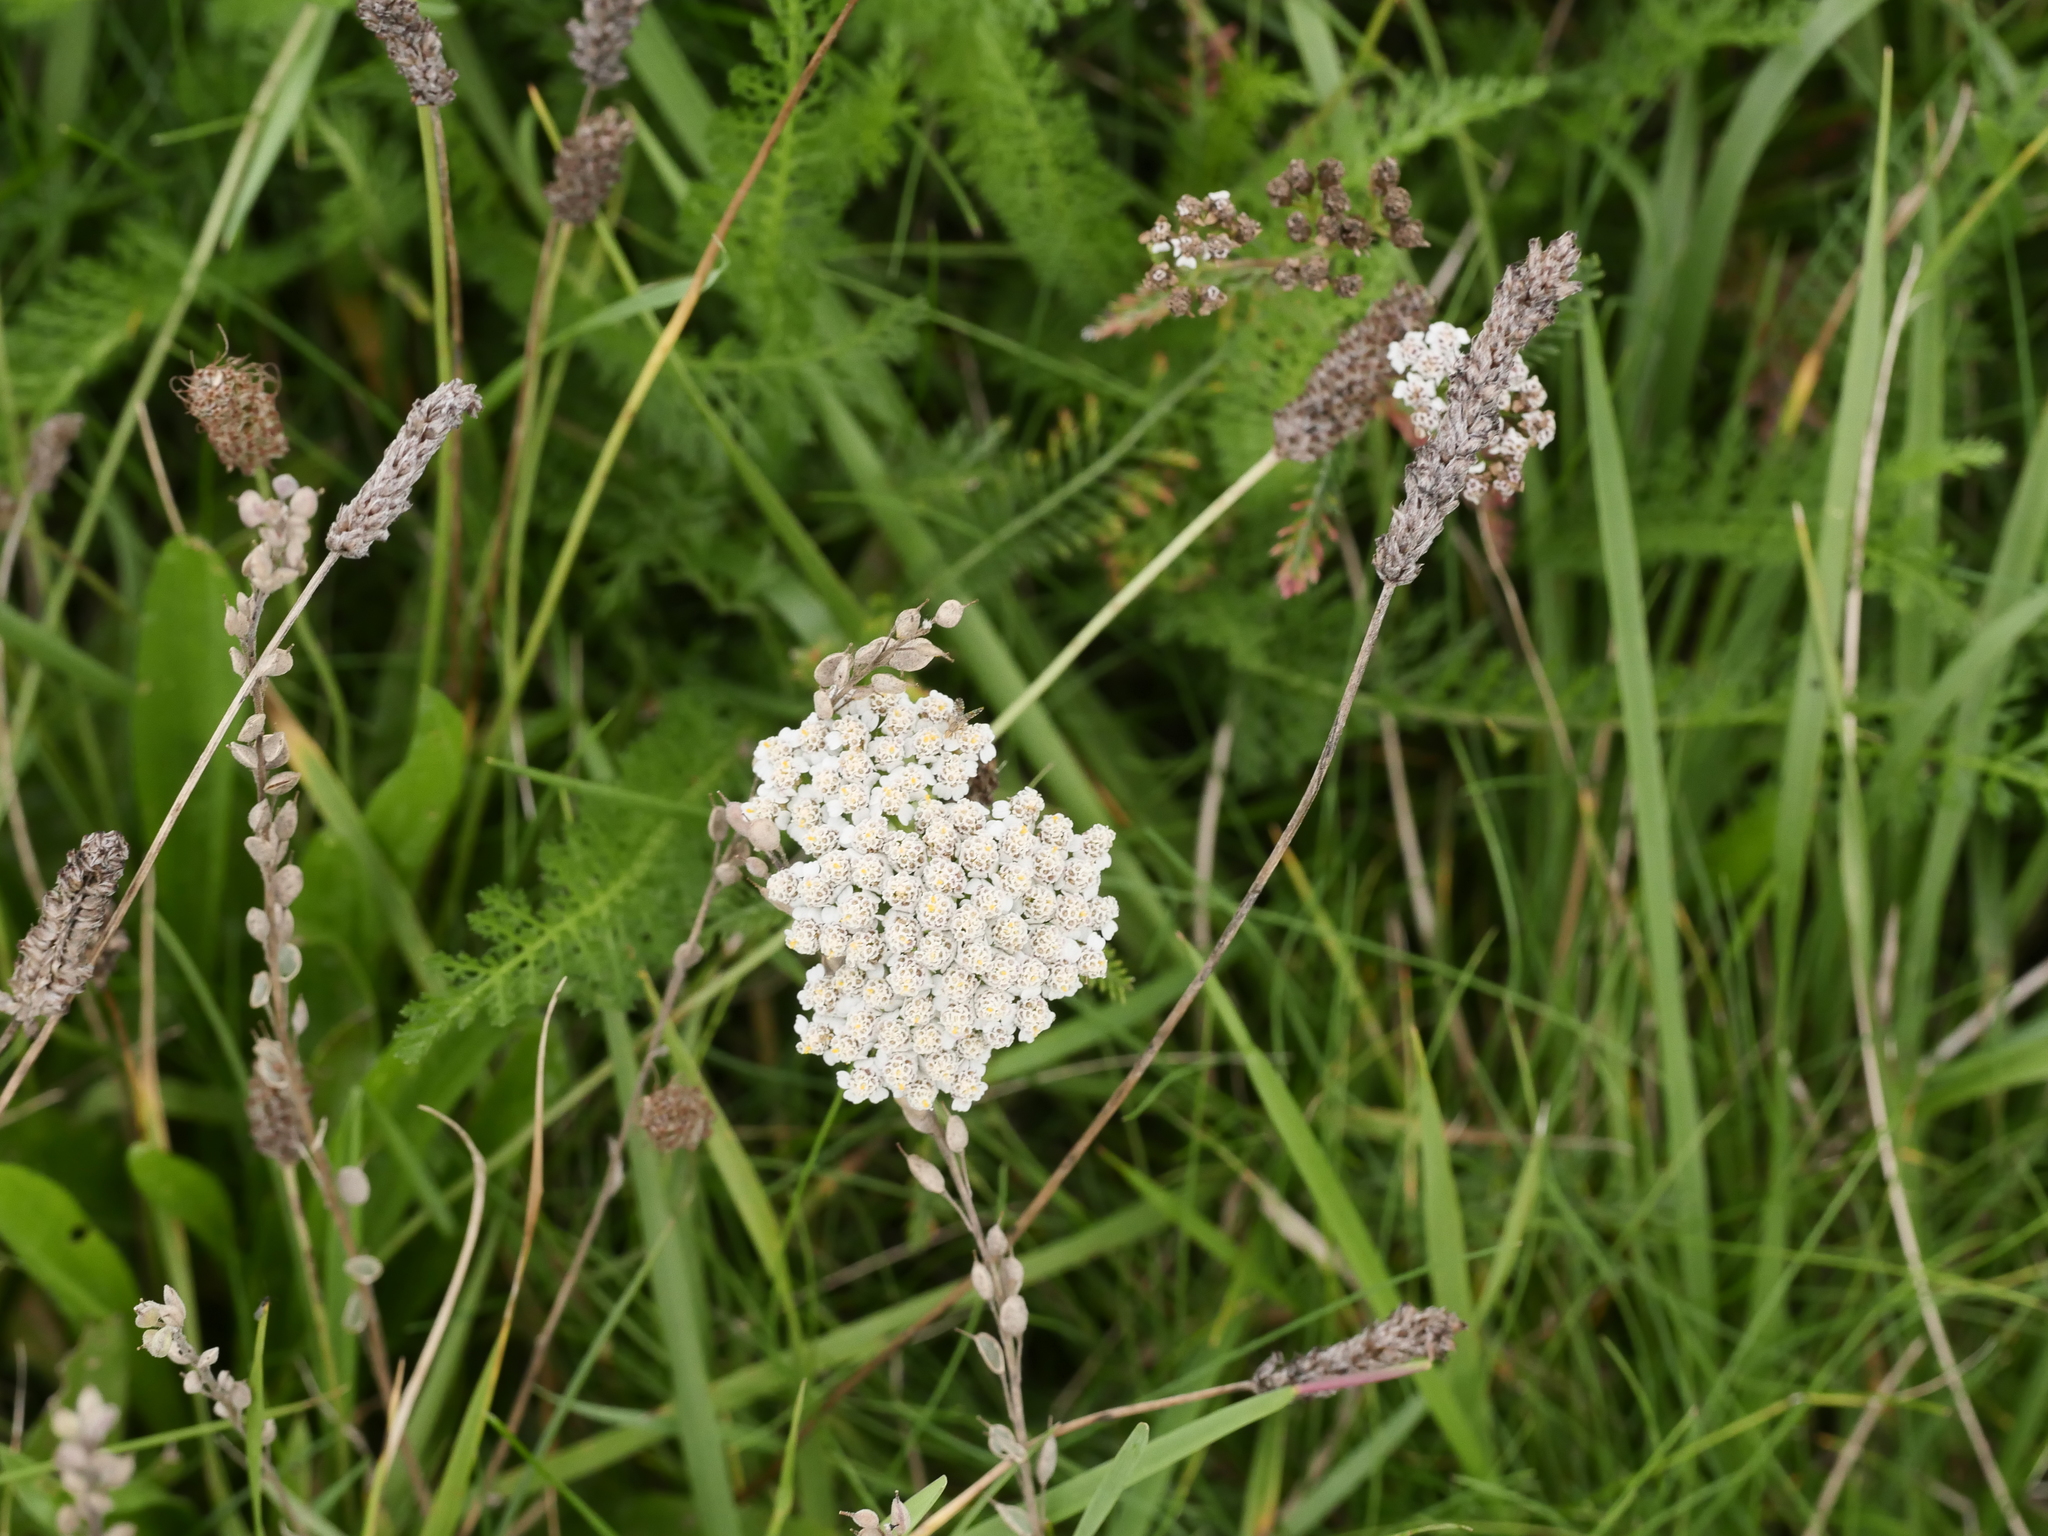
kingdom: Plantae
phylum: Tracheophyta
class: Magnoliopsida
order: Asterales
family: Asteraceae
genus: Achillea
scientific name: Achillea millefolium
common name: Yarrow
